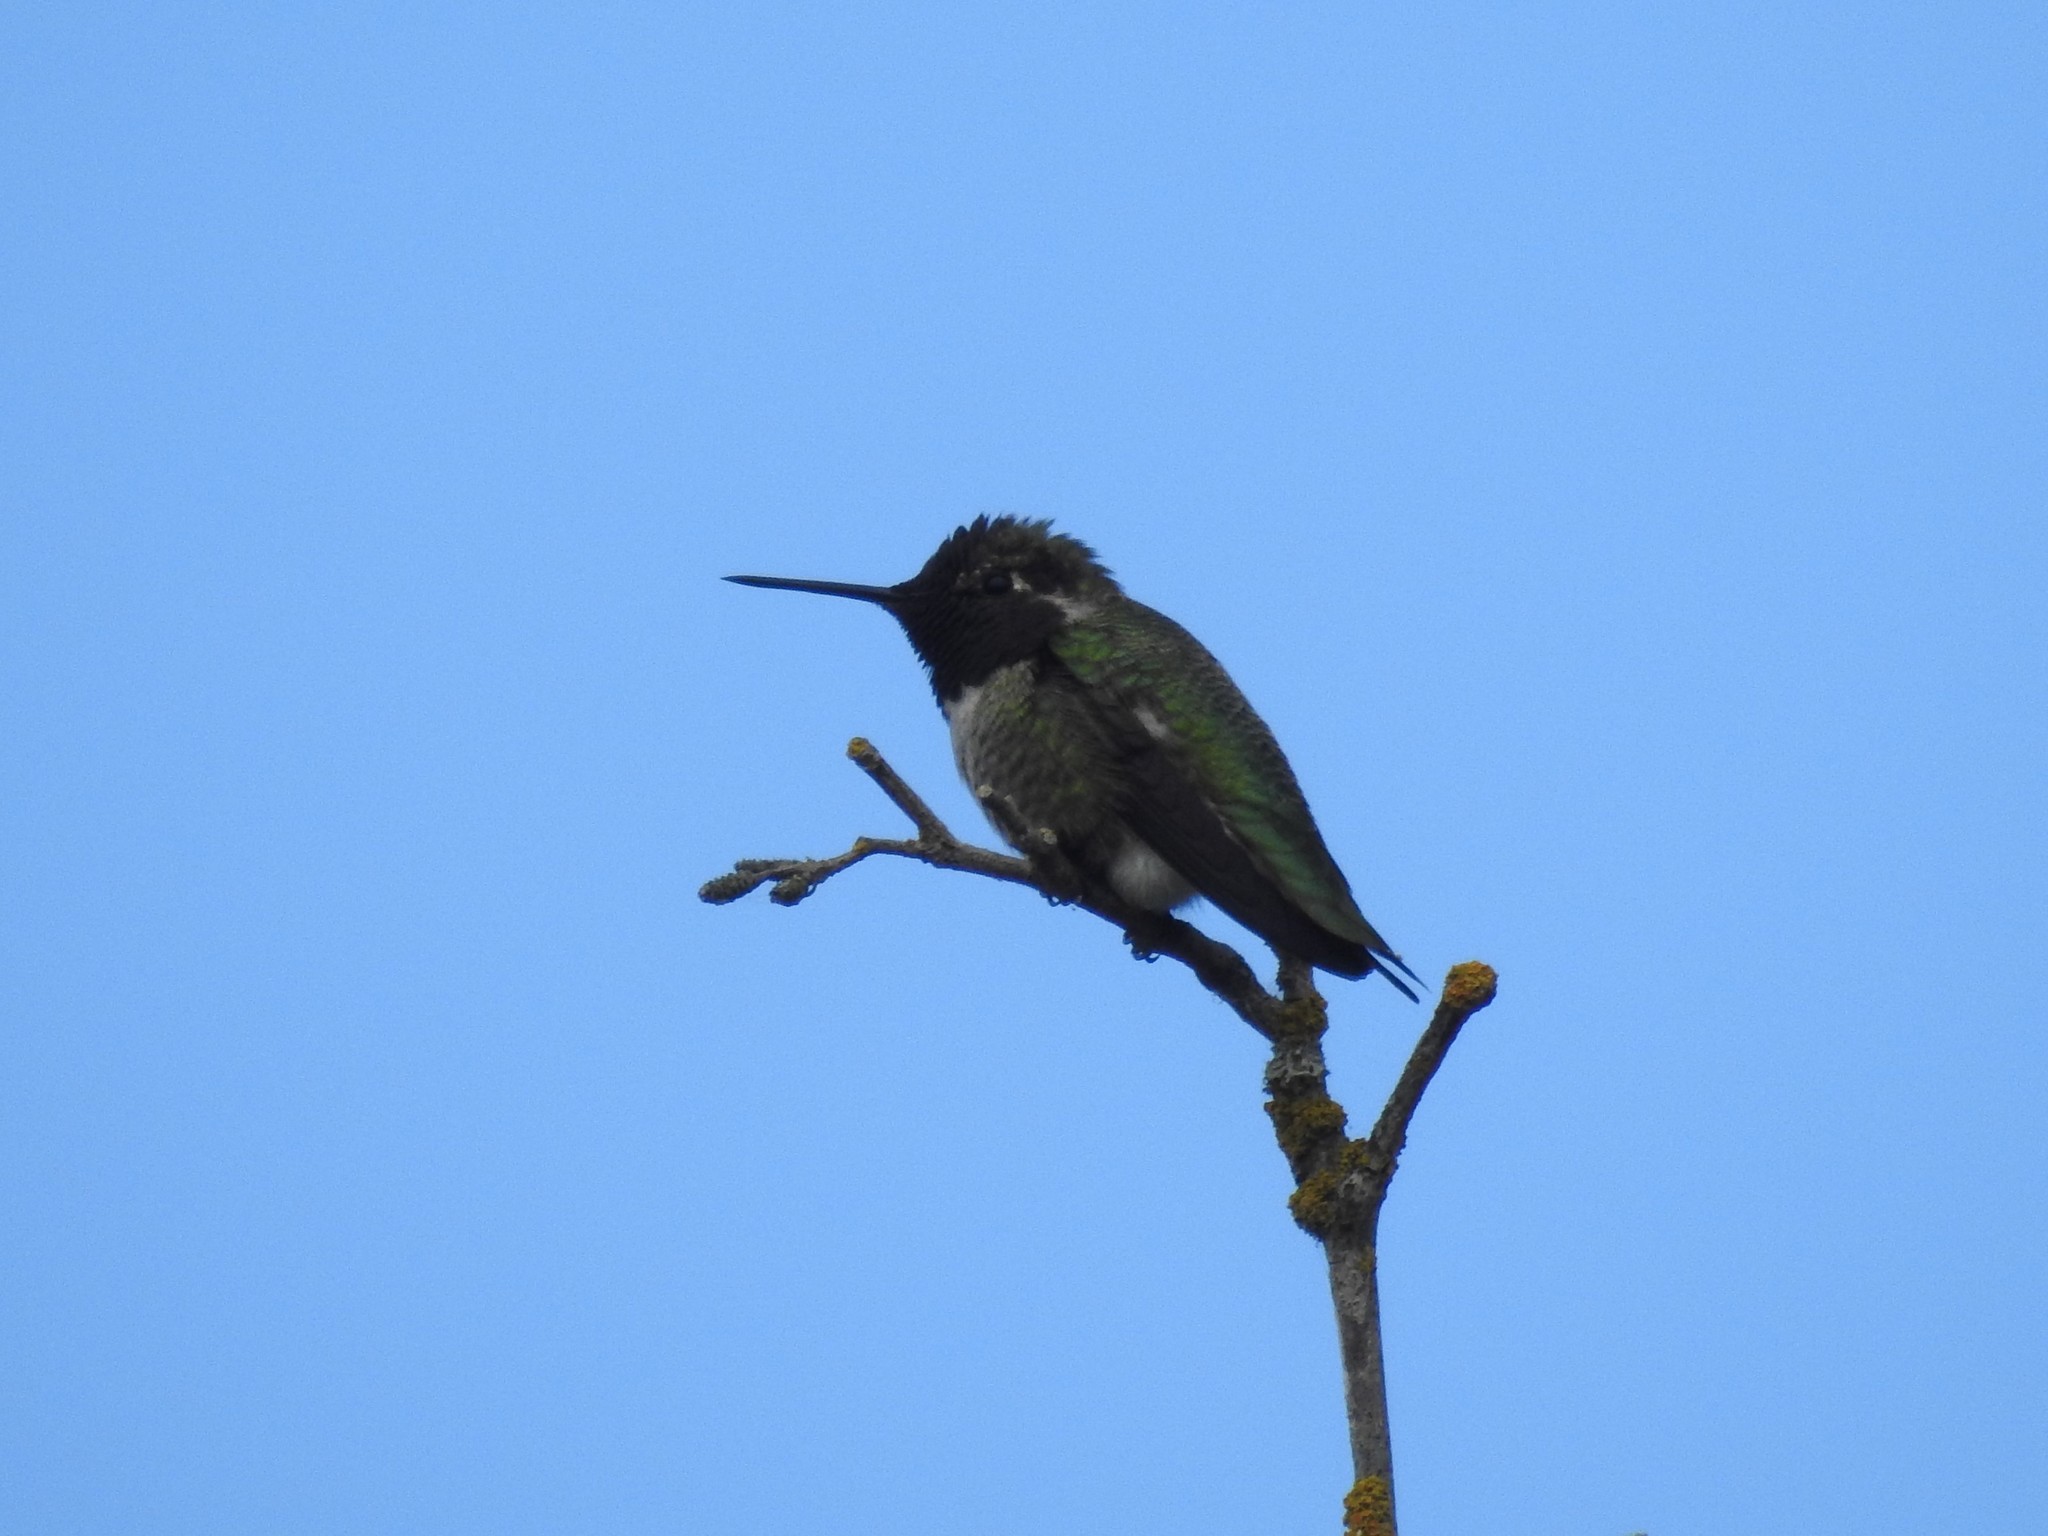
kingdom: Animalia
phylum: Chordata
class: Aves
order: Apodiformes
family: Trochilidae
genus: Calypte
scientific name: Calypte anna
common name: Anna's hummingbird
